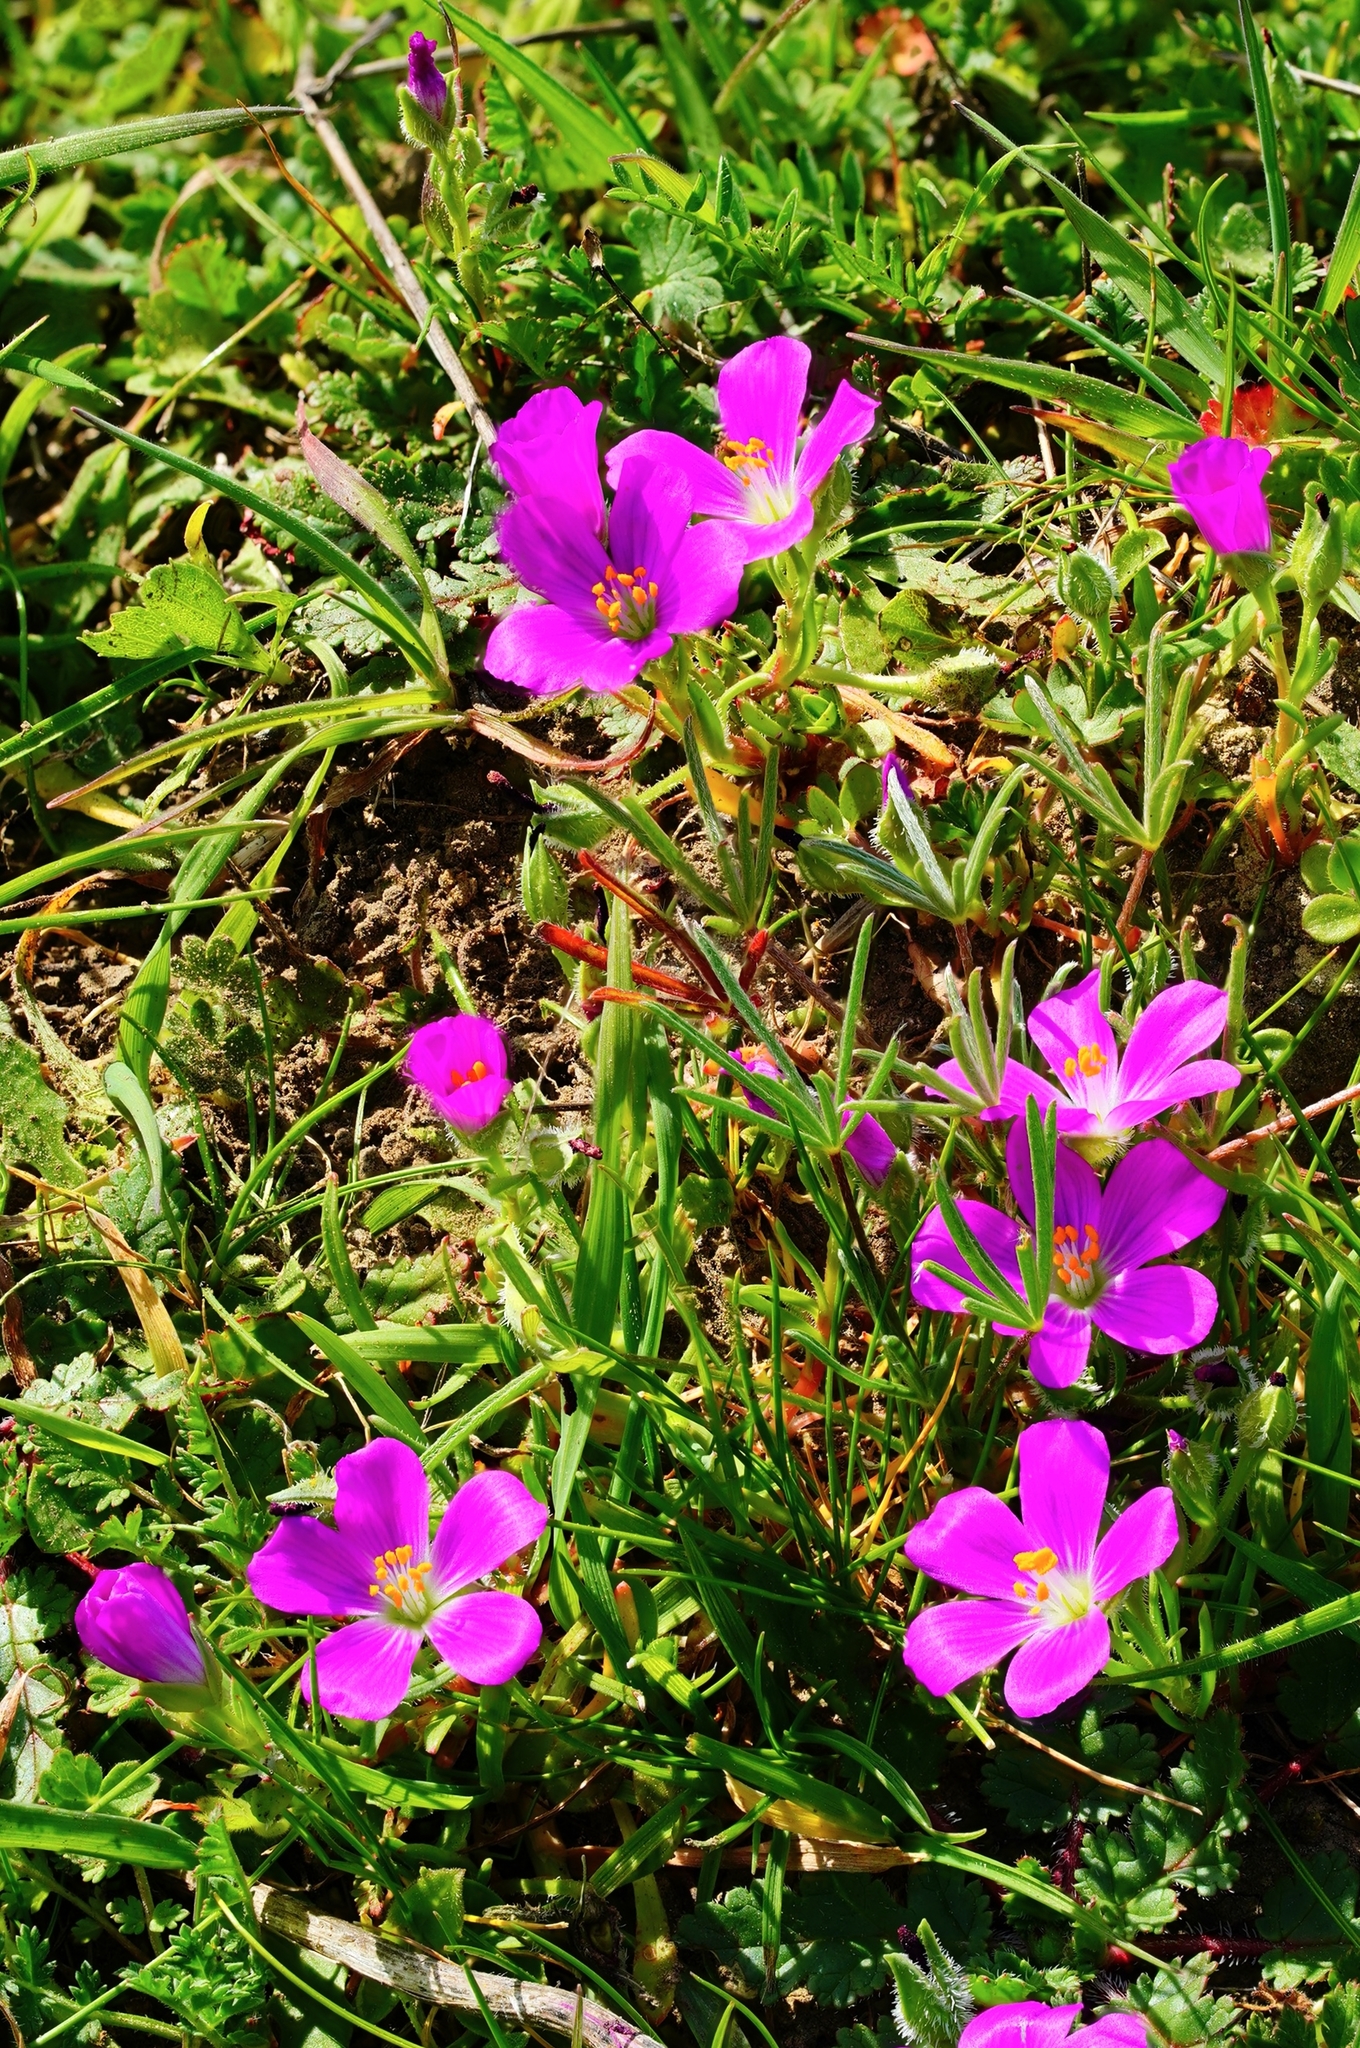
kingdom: Plantae
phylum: Tracheophyta
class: Magnoliopsida
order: Caryophyllales
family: Montiaceae
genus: Calandrinia
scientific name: Calandrinia menziesii
